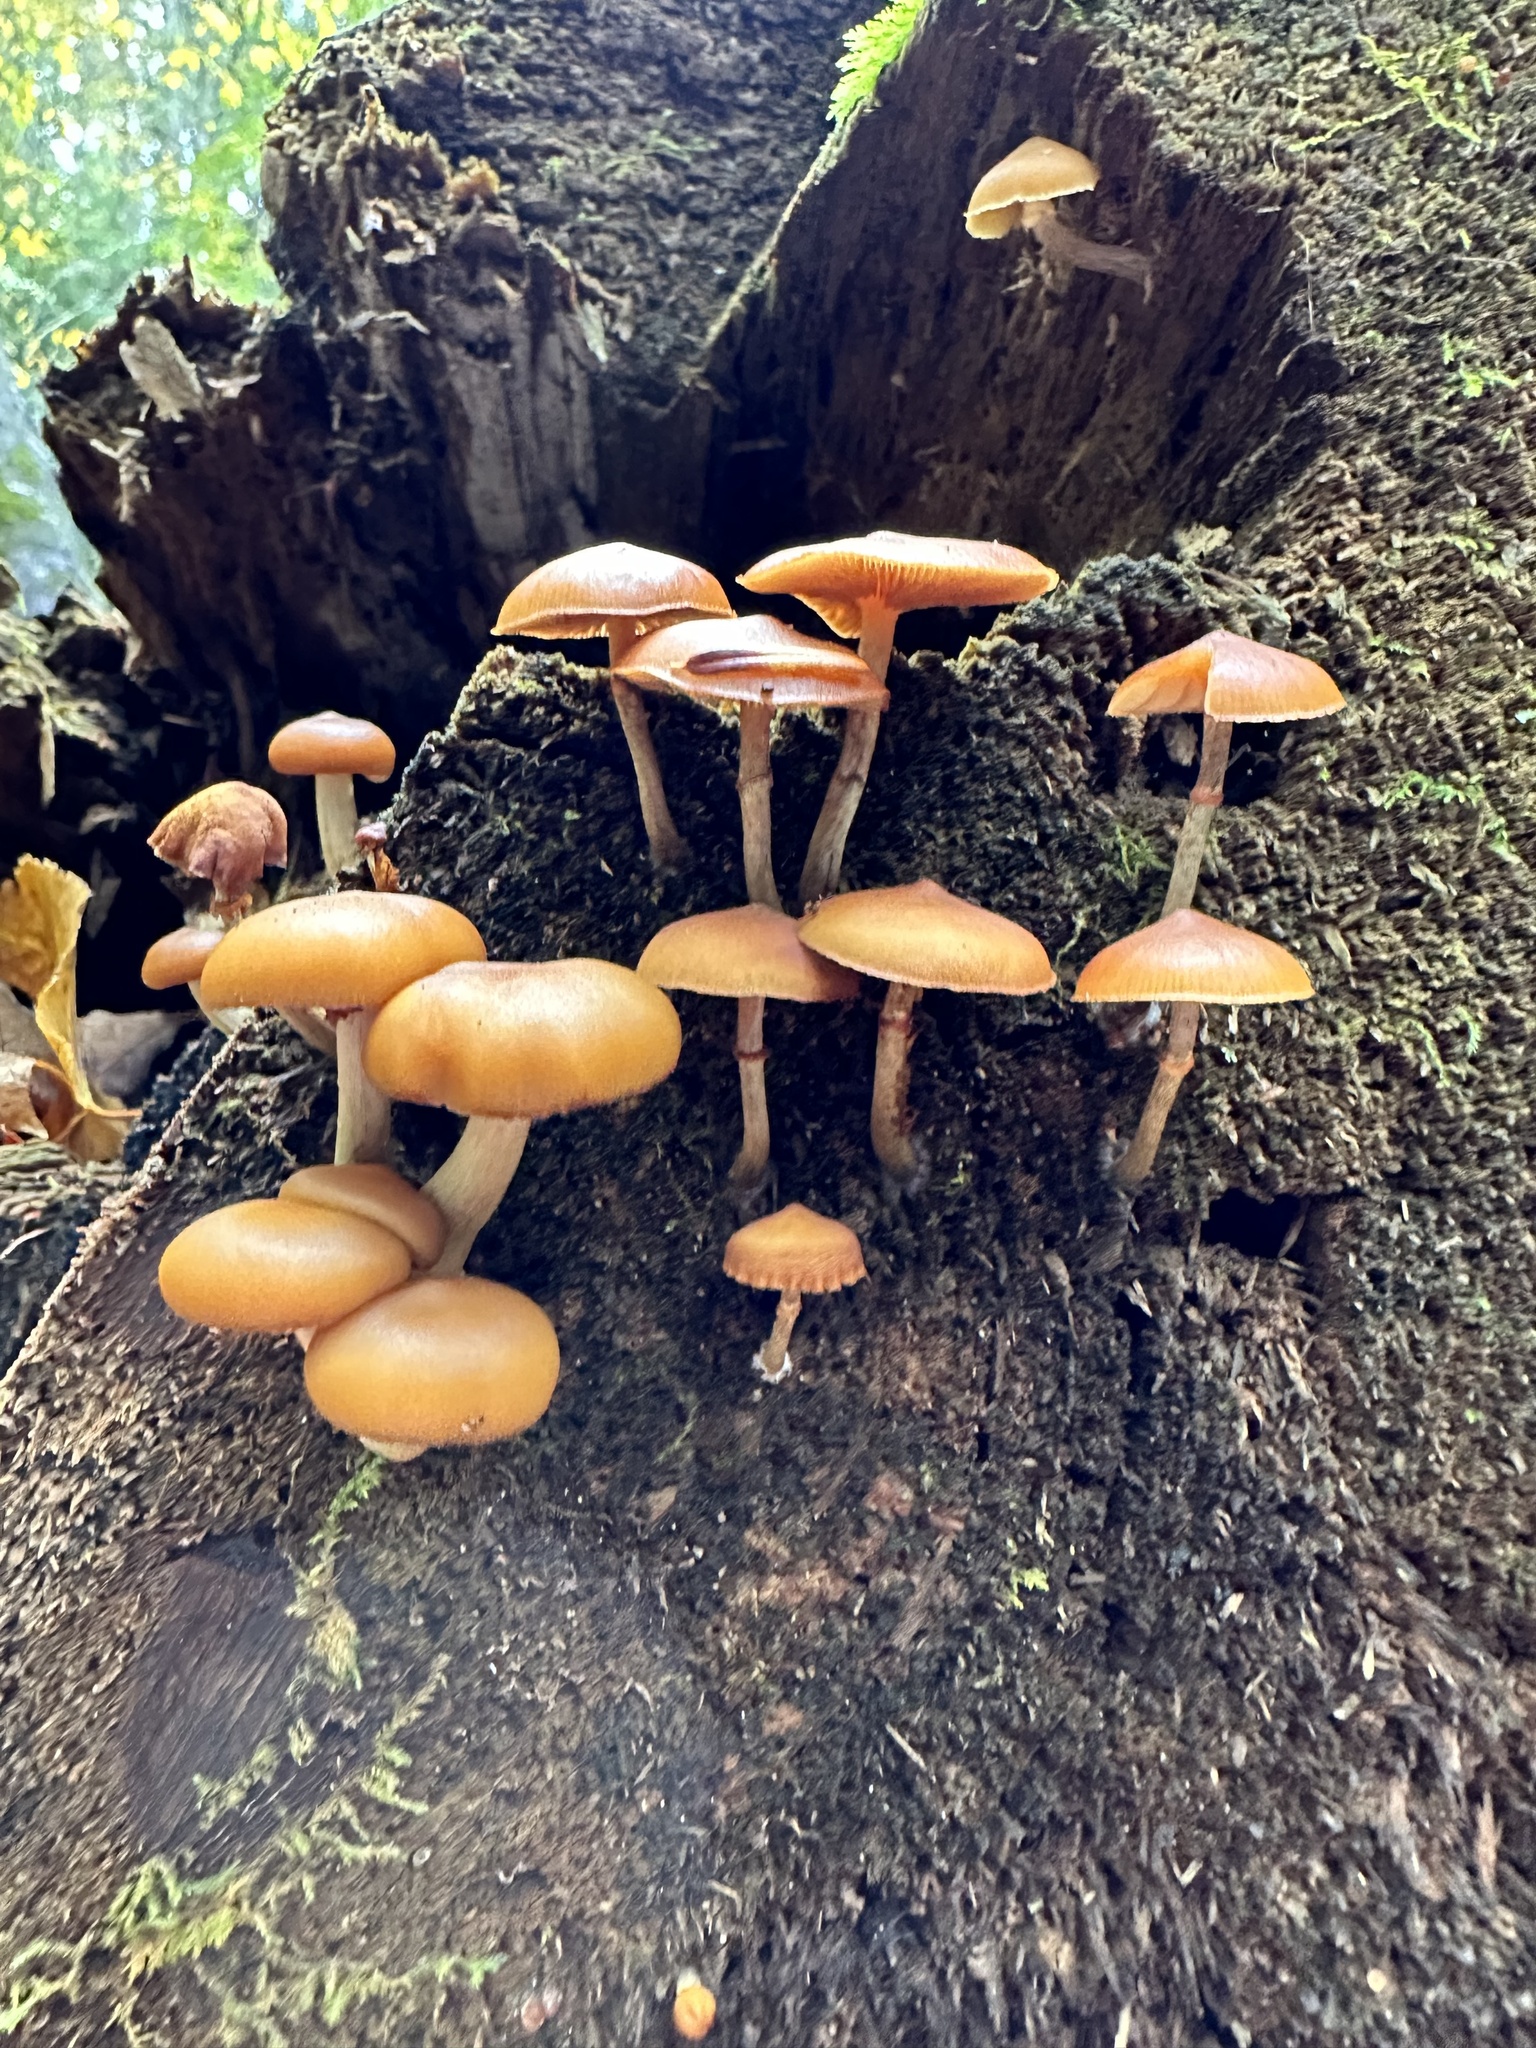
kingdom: Fungi
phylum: Basidiomycota
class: Agaricomycetes
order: Agaricales
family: Hymenogastraceae
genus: Galerina
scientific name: Galerina marginata
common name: Funeral bell
